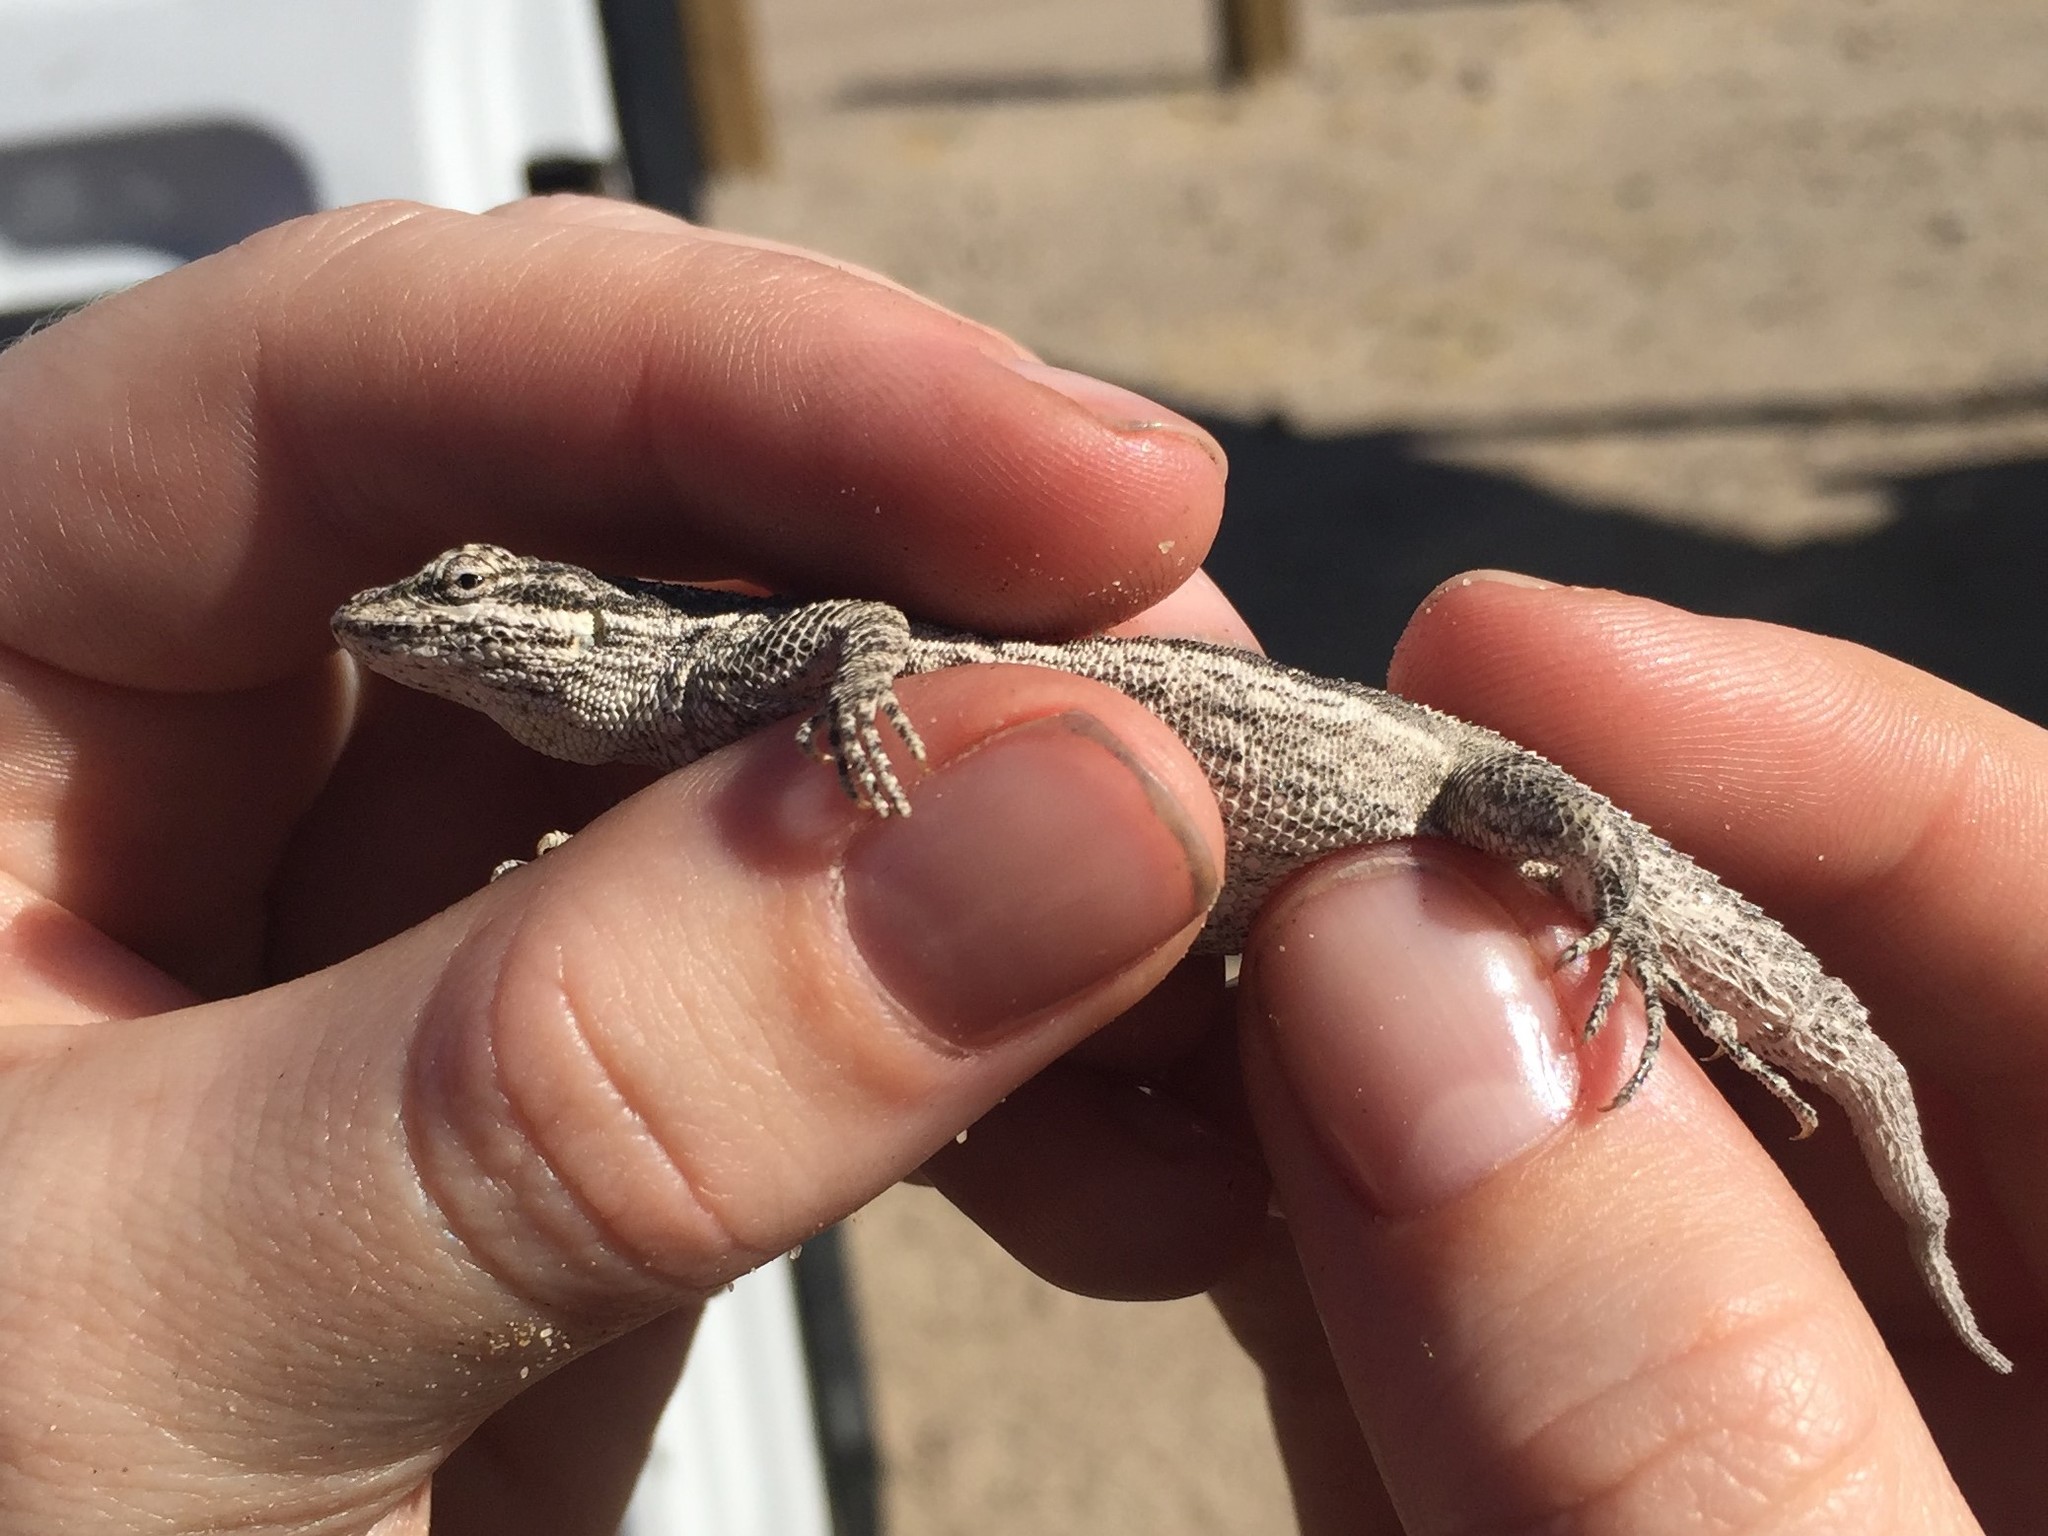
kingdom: Animalia
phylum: Chordata
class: Squamata
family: Phrynosomatidae
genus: Urosaurus
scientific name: Urosaurus graciosus
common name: Long-tailed brush lizard
